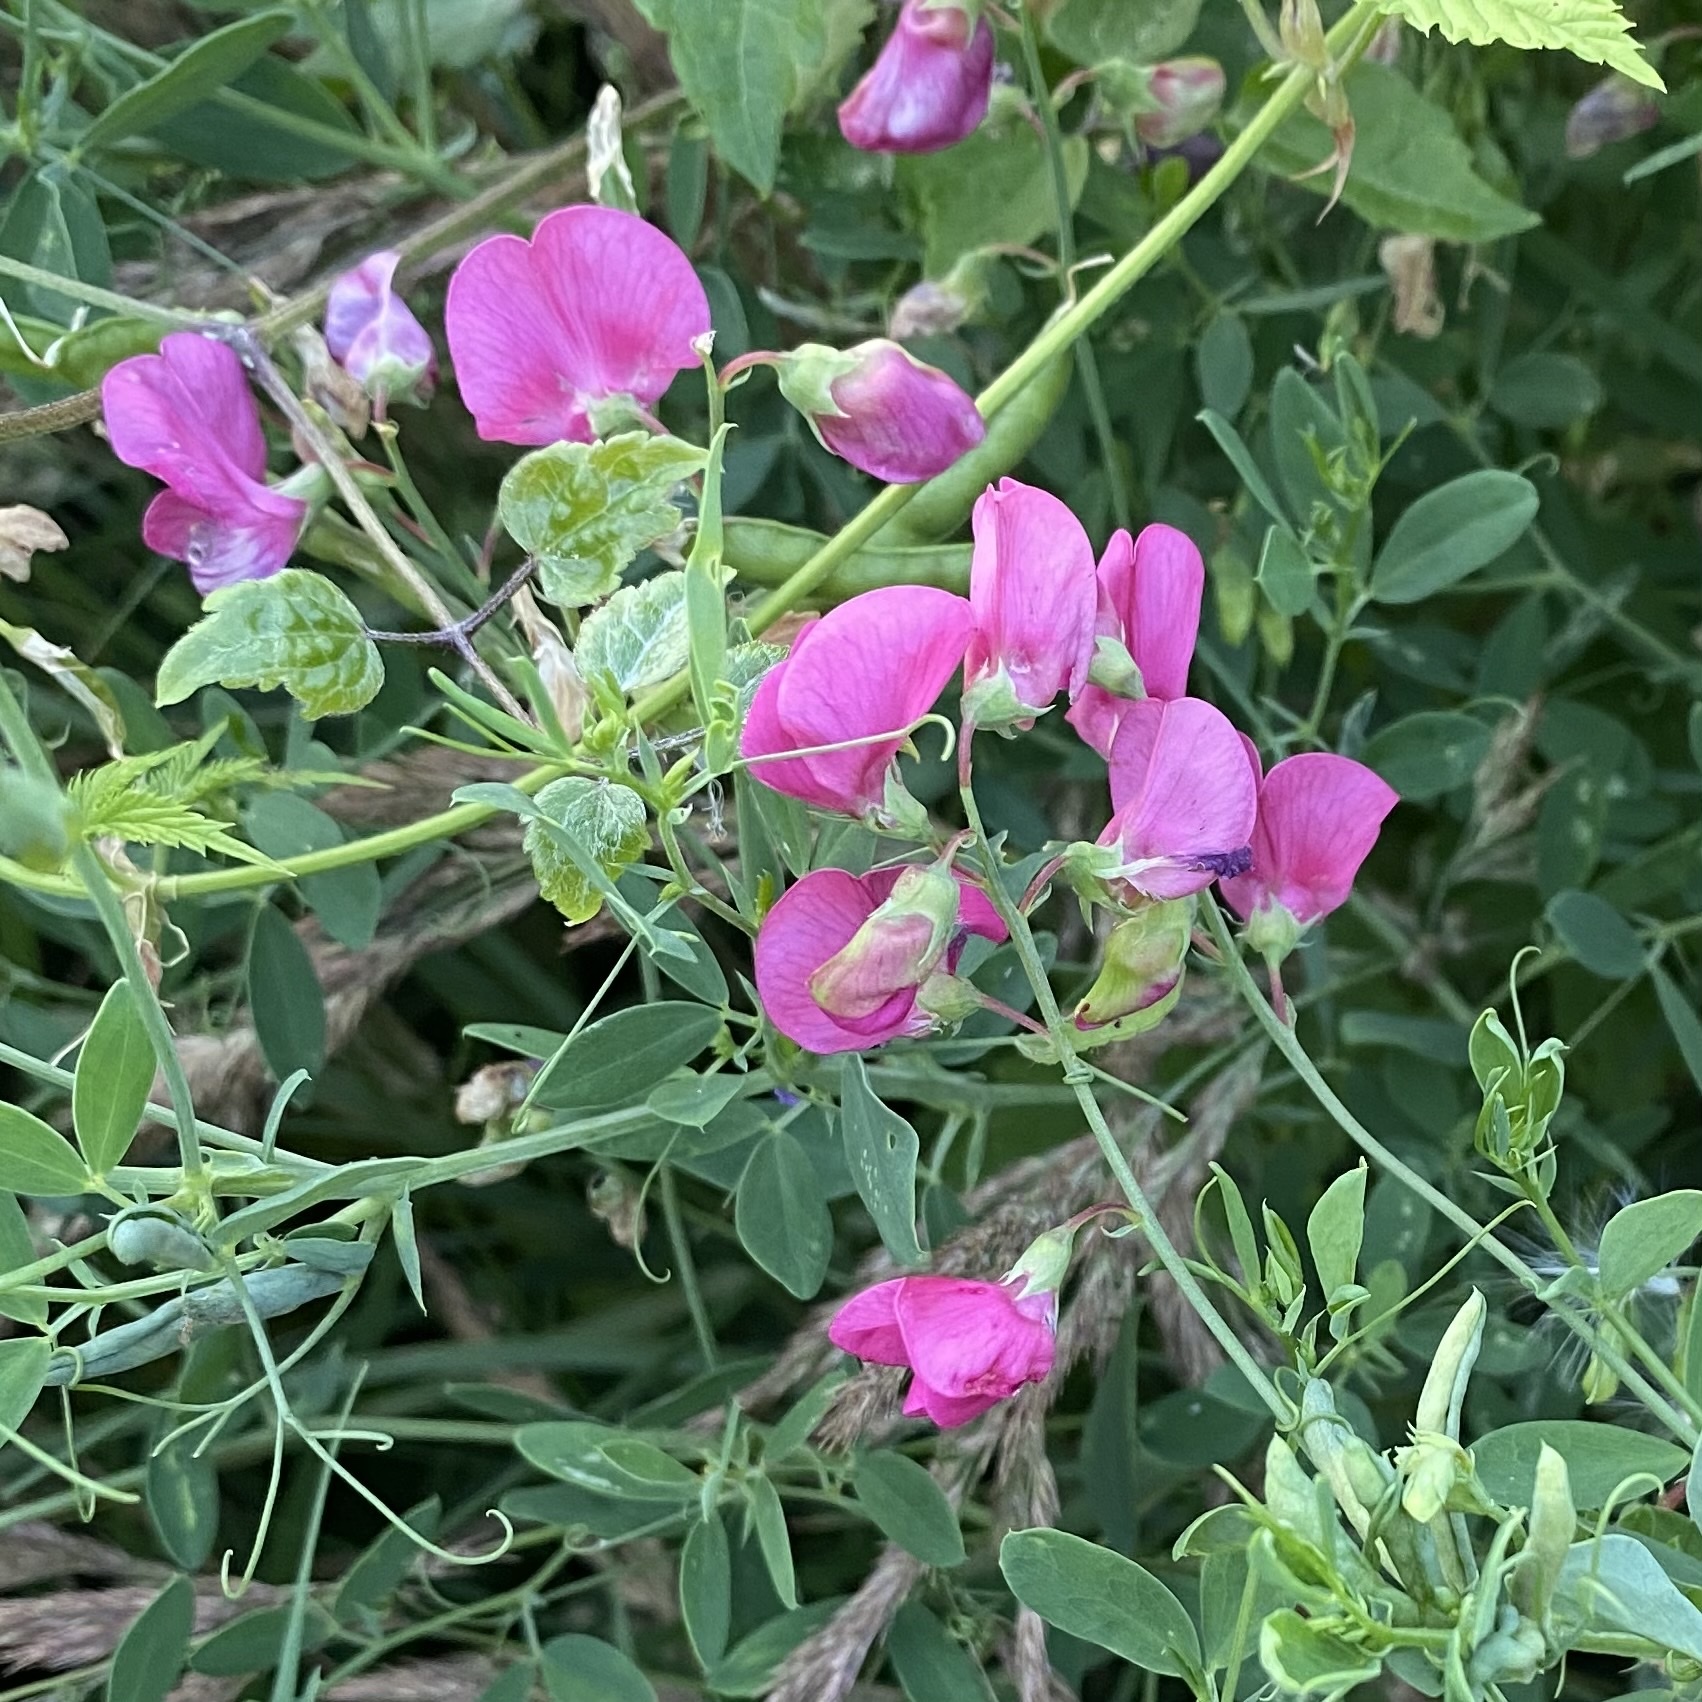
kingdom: Plantae
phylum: Tracheophyta
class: Magnoliopsida
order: Fabales
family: Fabaceae
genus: Lathyrus
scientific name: Lathyrus tuberosus
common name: Tuberous pea
